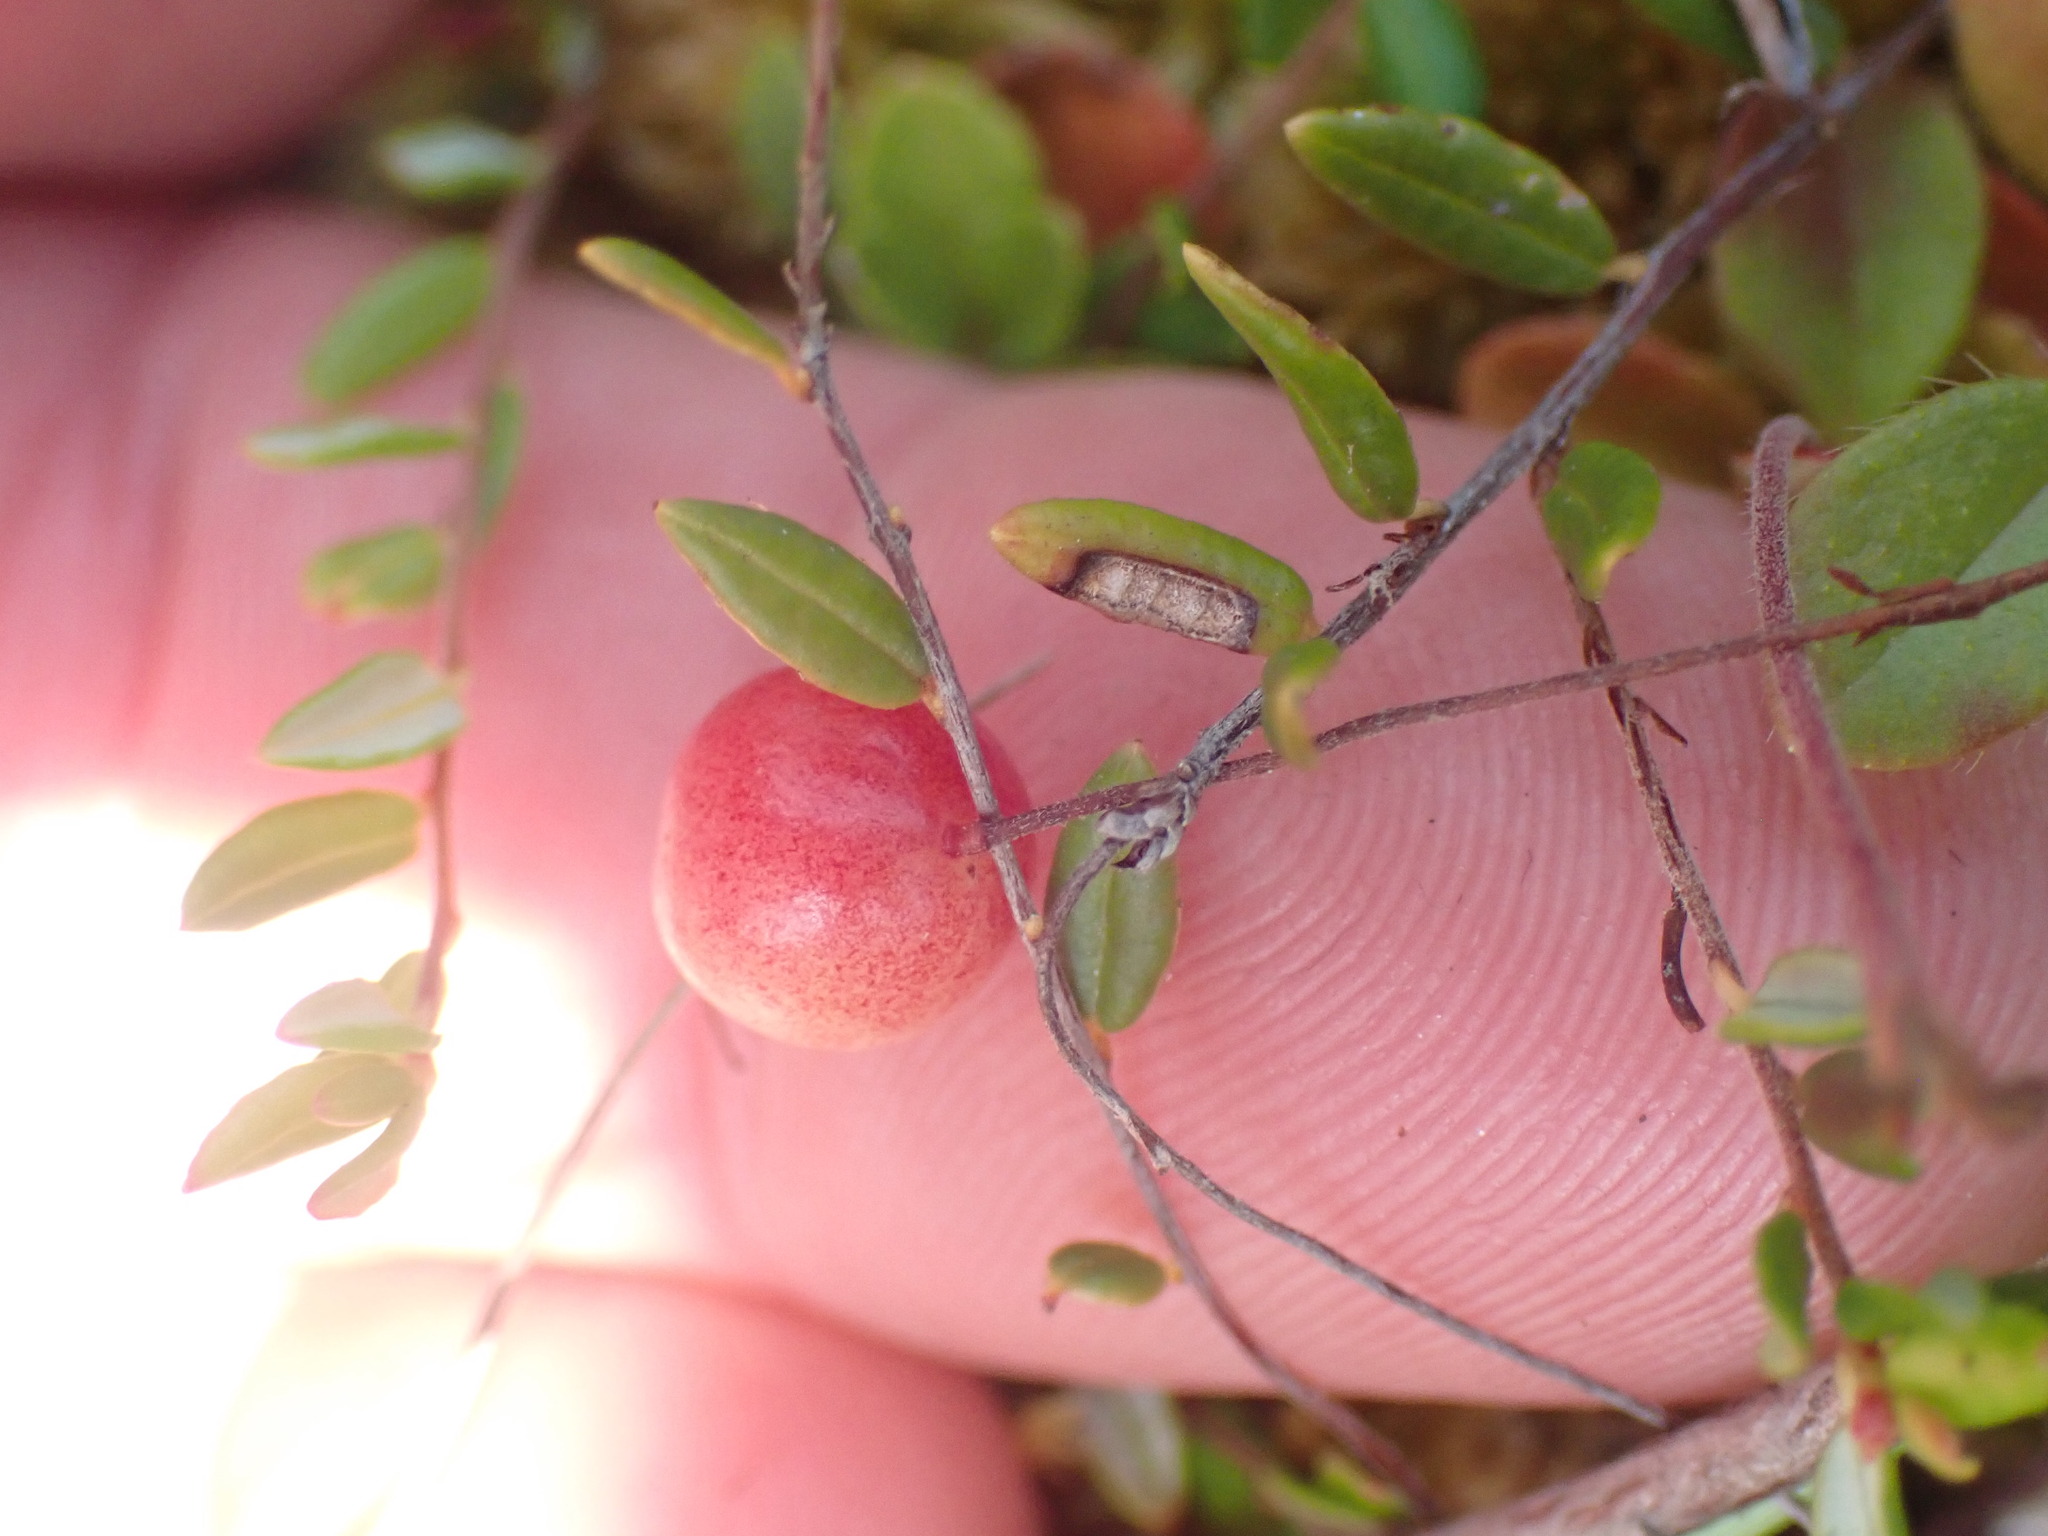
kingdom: Plantae
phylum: Tracheophyta
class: Magnoliopsida
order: Ericales
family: Ericaceae
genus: Vaccinium
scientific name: Vaccinium oxycoccos
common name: Cranberry
